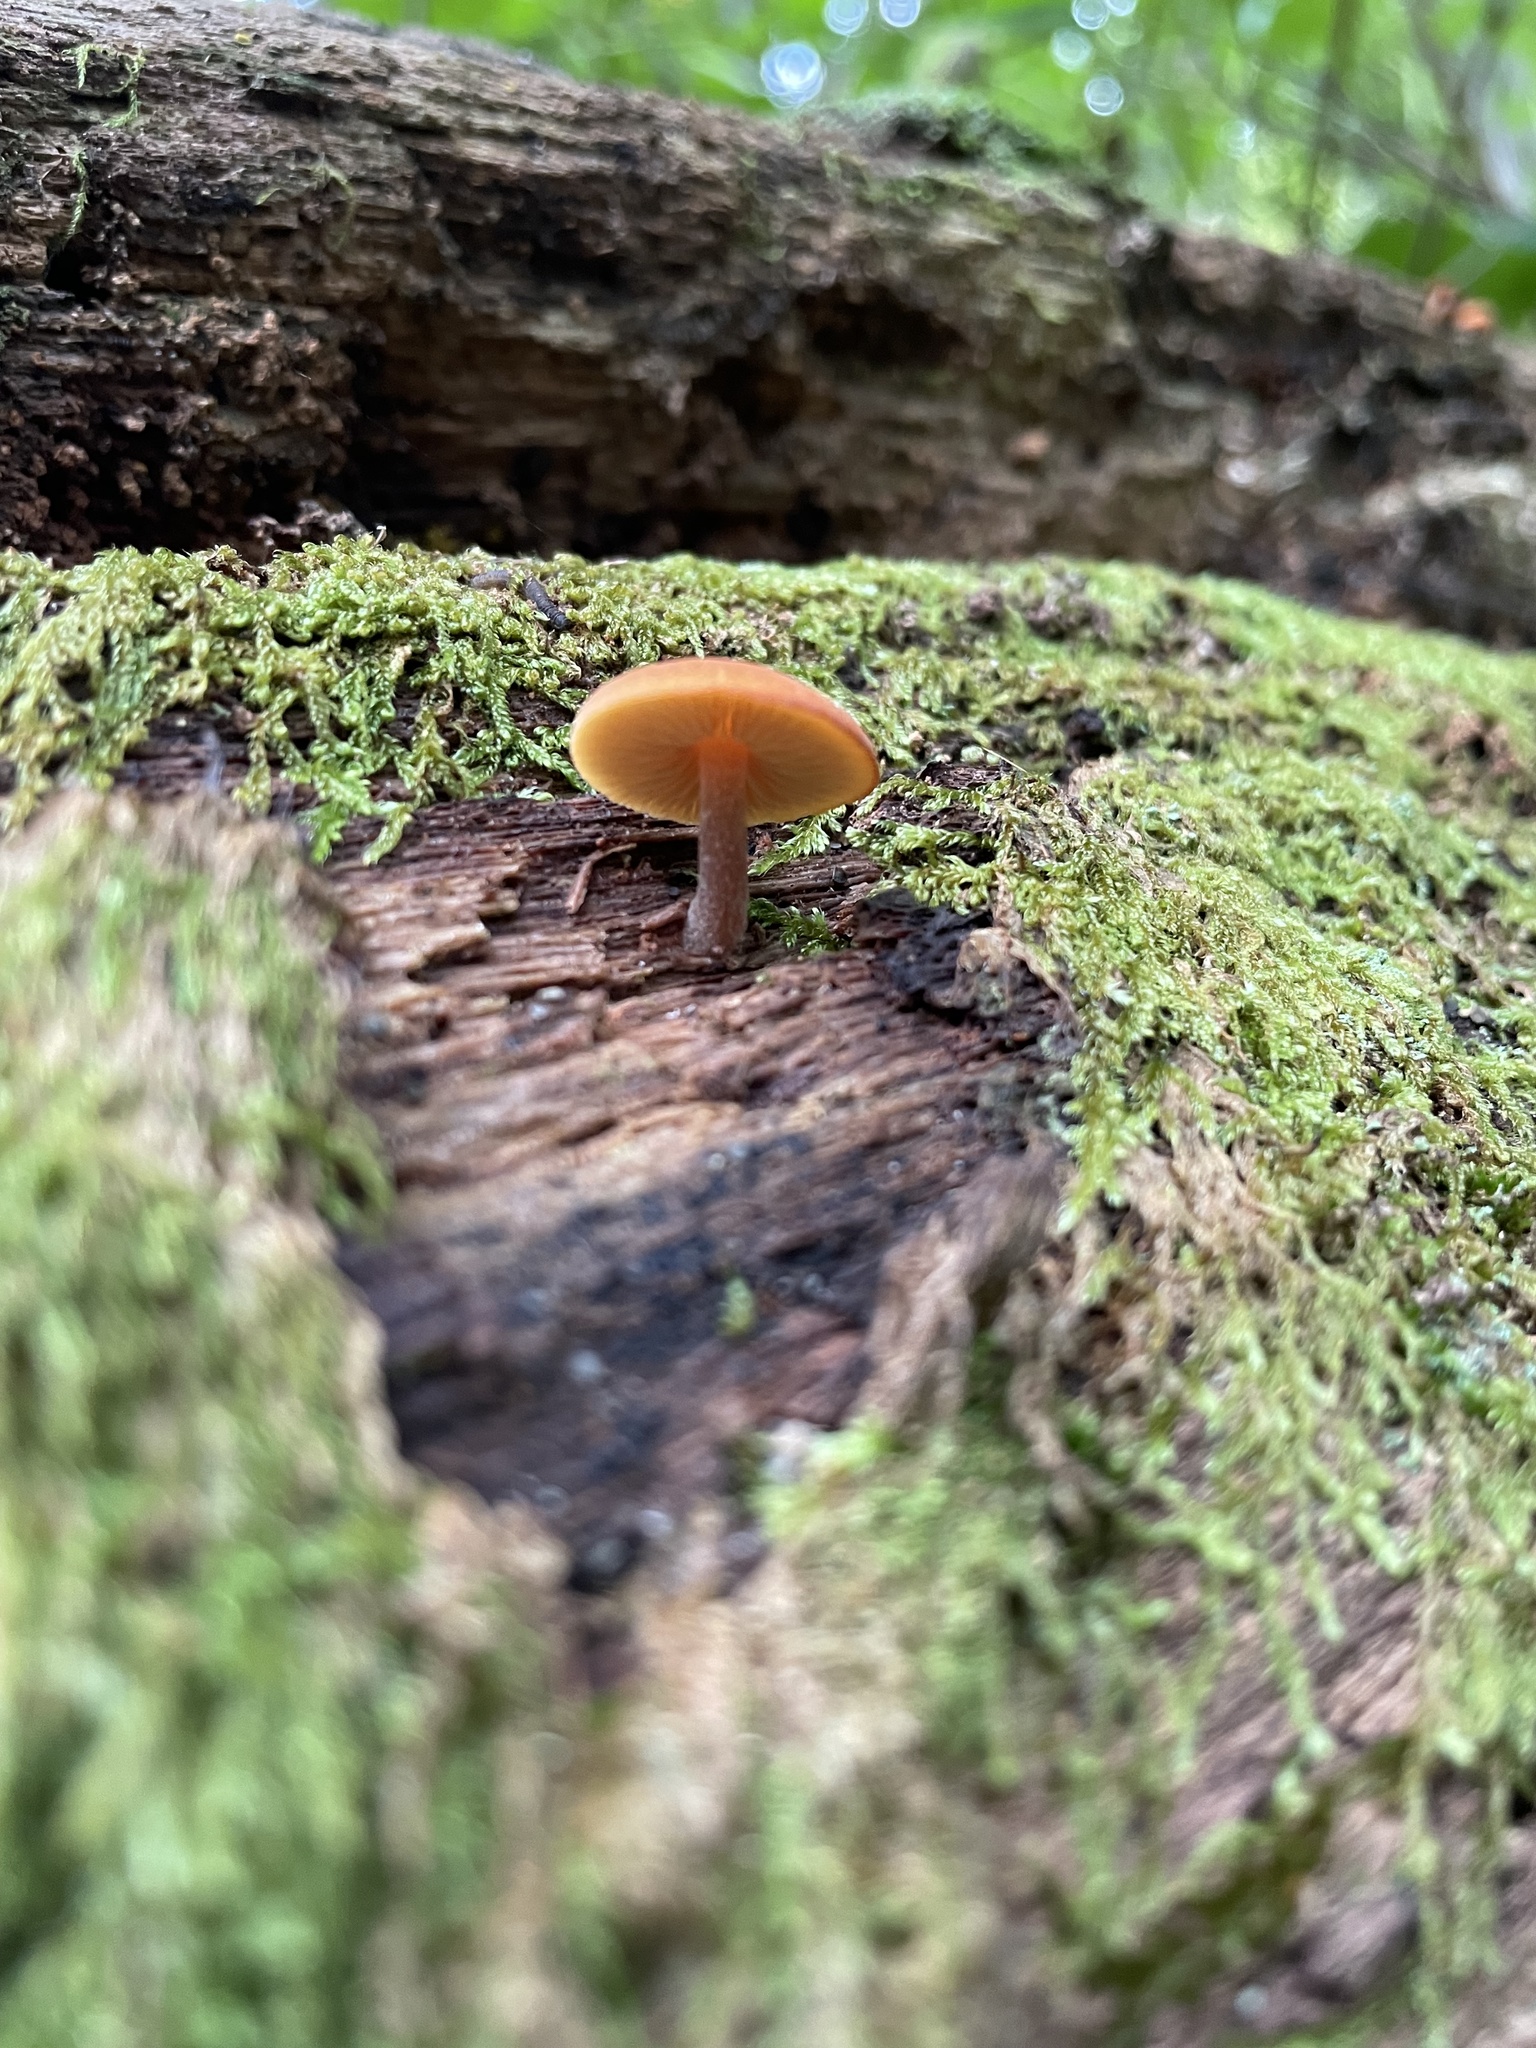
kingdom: Fungi
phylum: Basidiomycota
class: Agaricomycetes
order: Agaricales
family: Hymenogastraceae
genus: Galerina
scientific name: Galerina marginata
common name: Funeral bell
